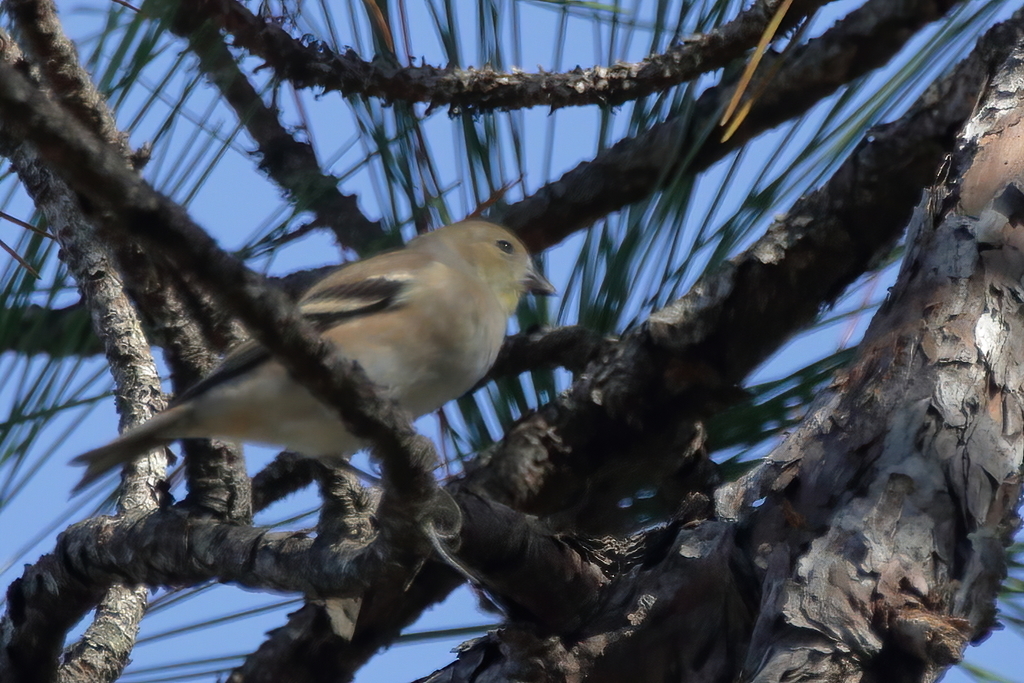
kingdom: Animalia
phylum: Chordata
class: Aves
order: Passeriformes
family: Fringillidae
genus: Spinus
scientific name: Spinus tristis
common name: American goldfinch
